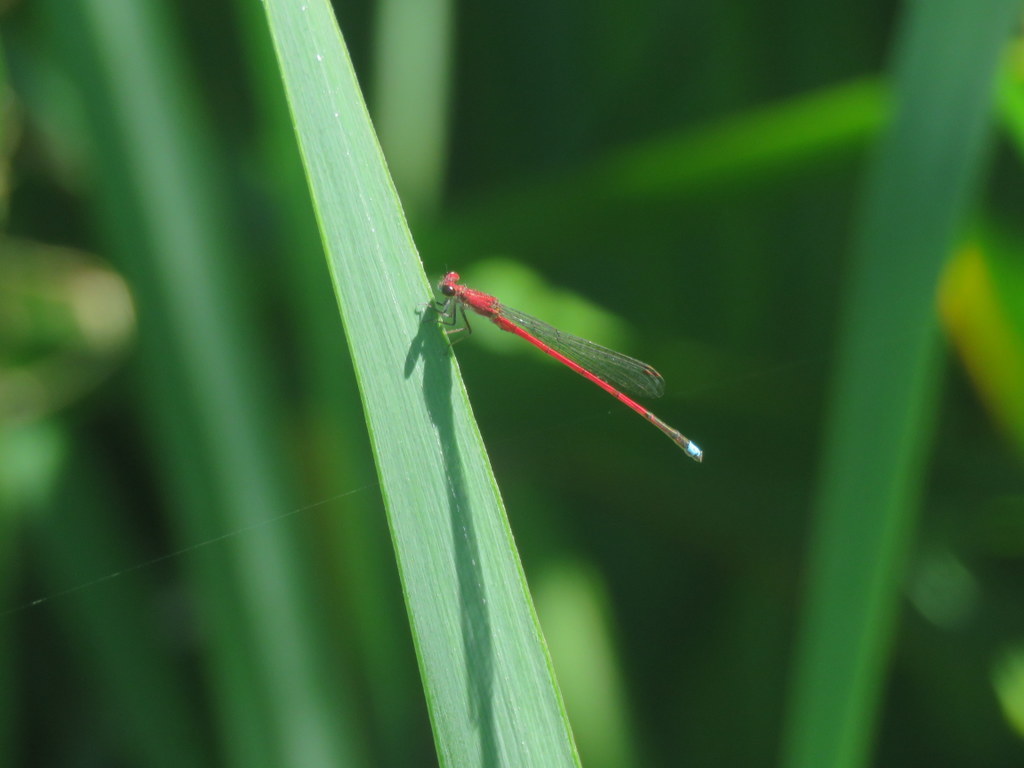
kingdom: Animalia
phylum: Arthropoda
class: Insecta
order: Odonata
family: Coenagrionidae
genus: Oxyagrion
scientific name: Oxyagrion terminale
